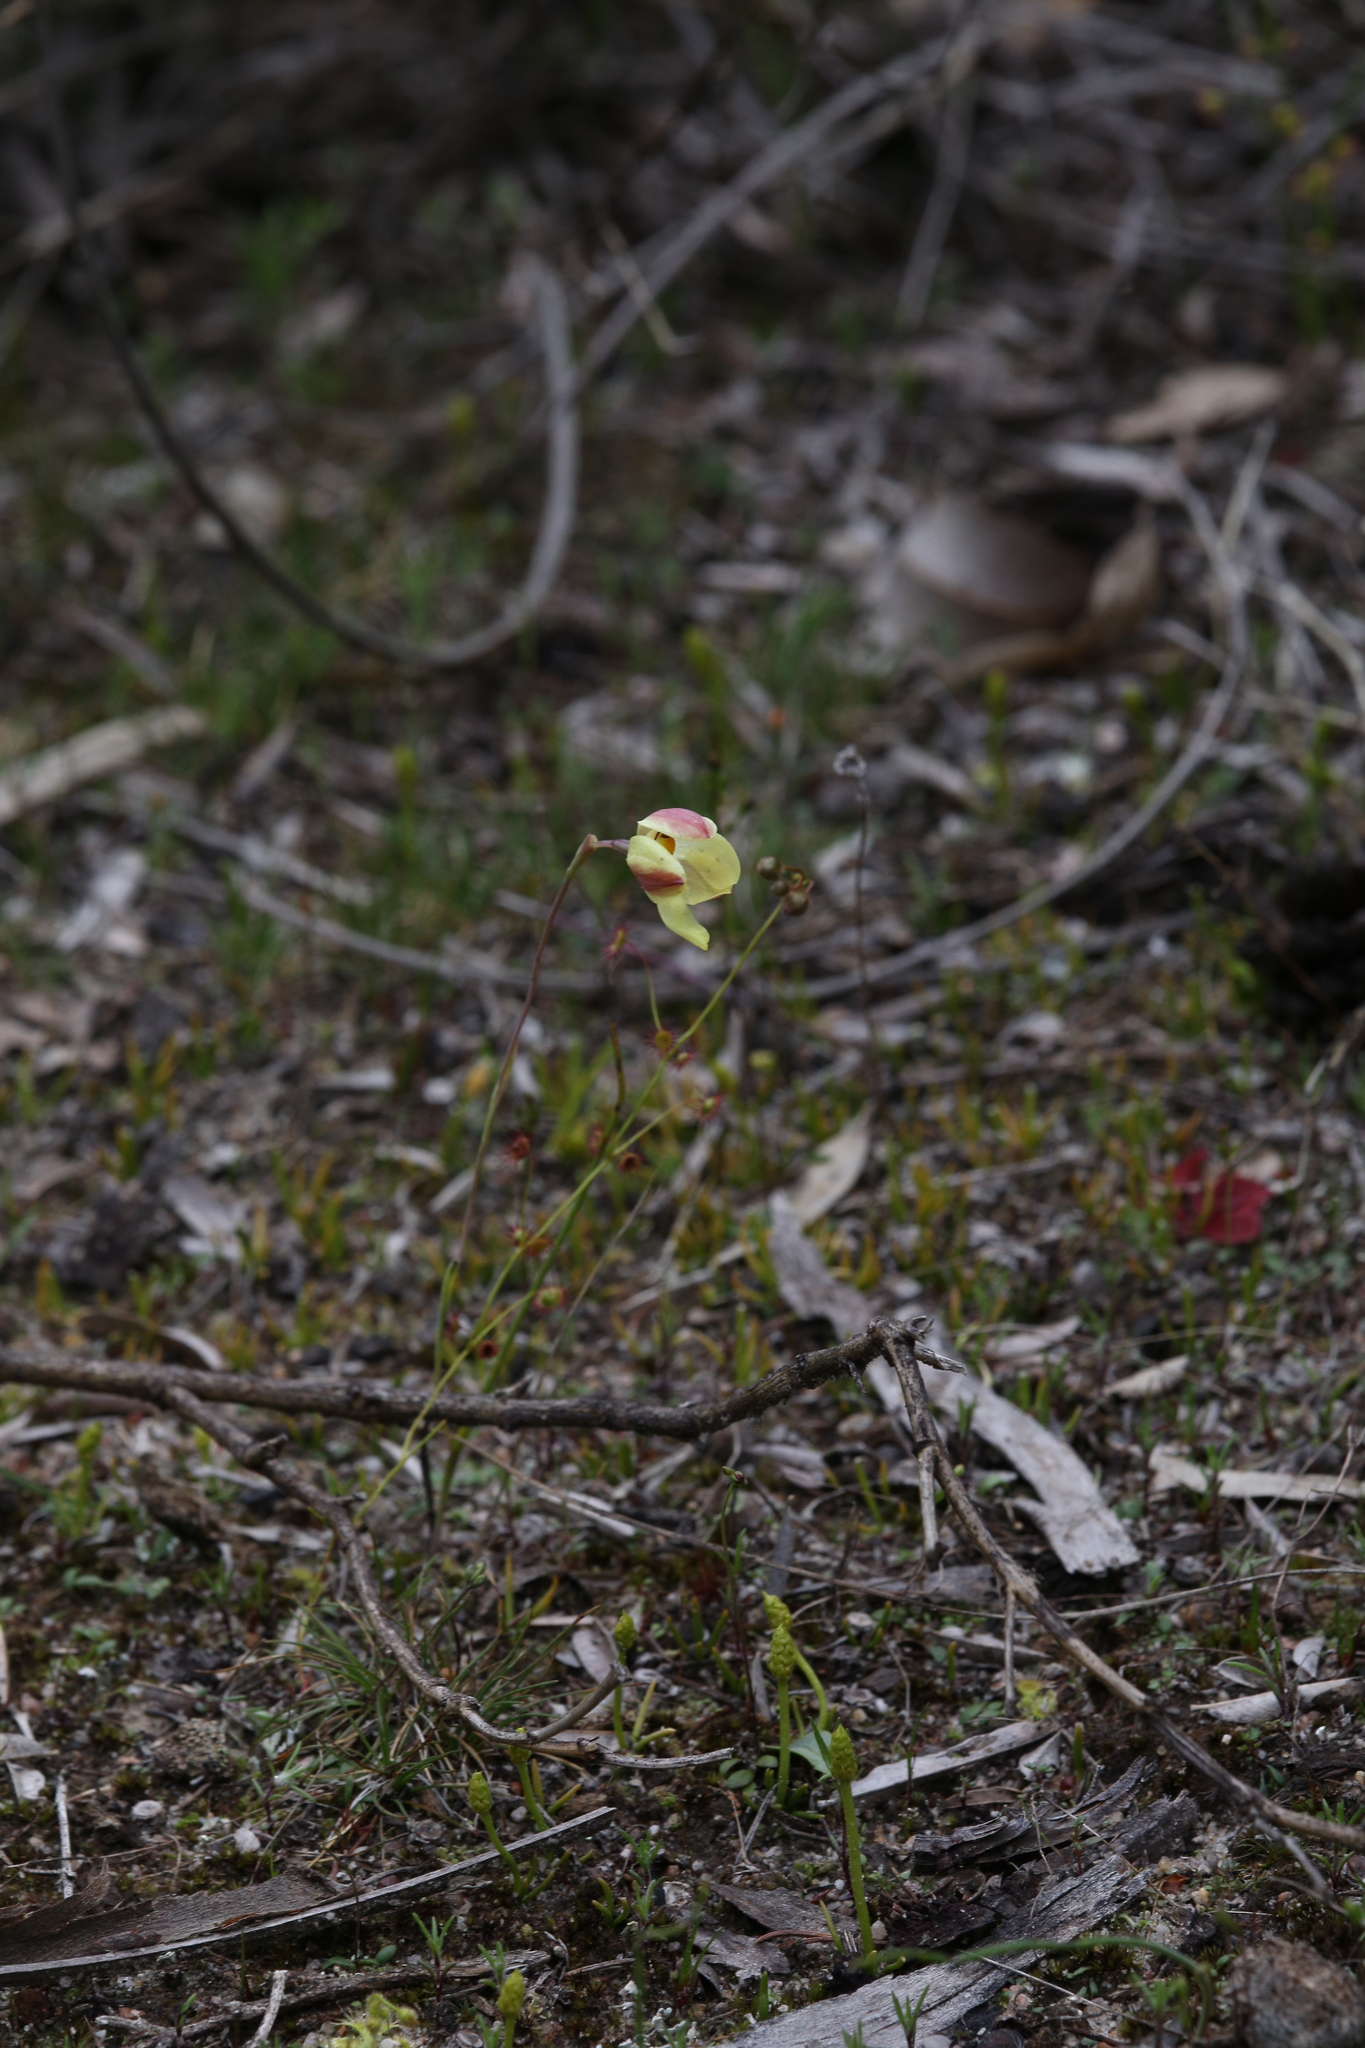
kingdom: Plantae
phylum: Tracheophyta
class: Liliopsida
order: Asparagales
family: Orchidaceae
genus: Thelymitra
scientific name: Thelymitra antennifera
